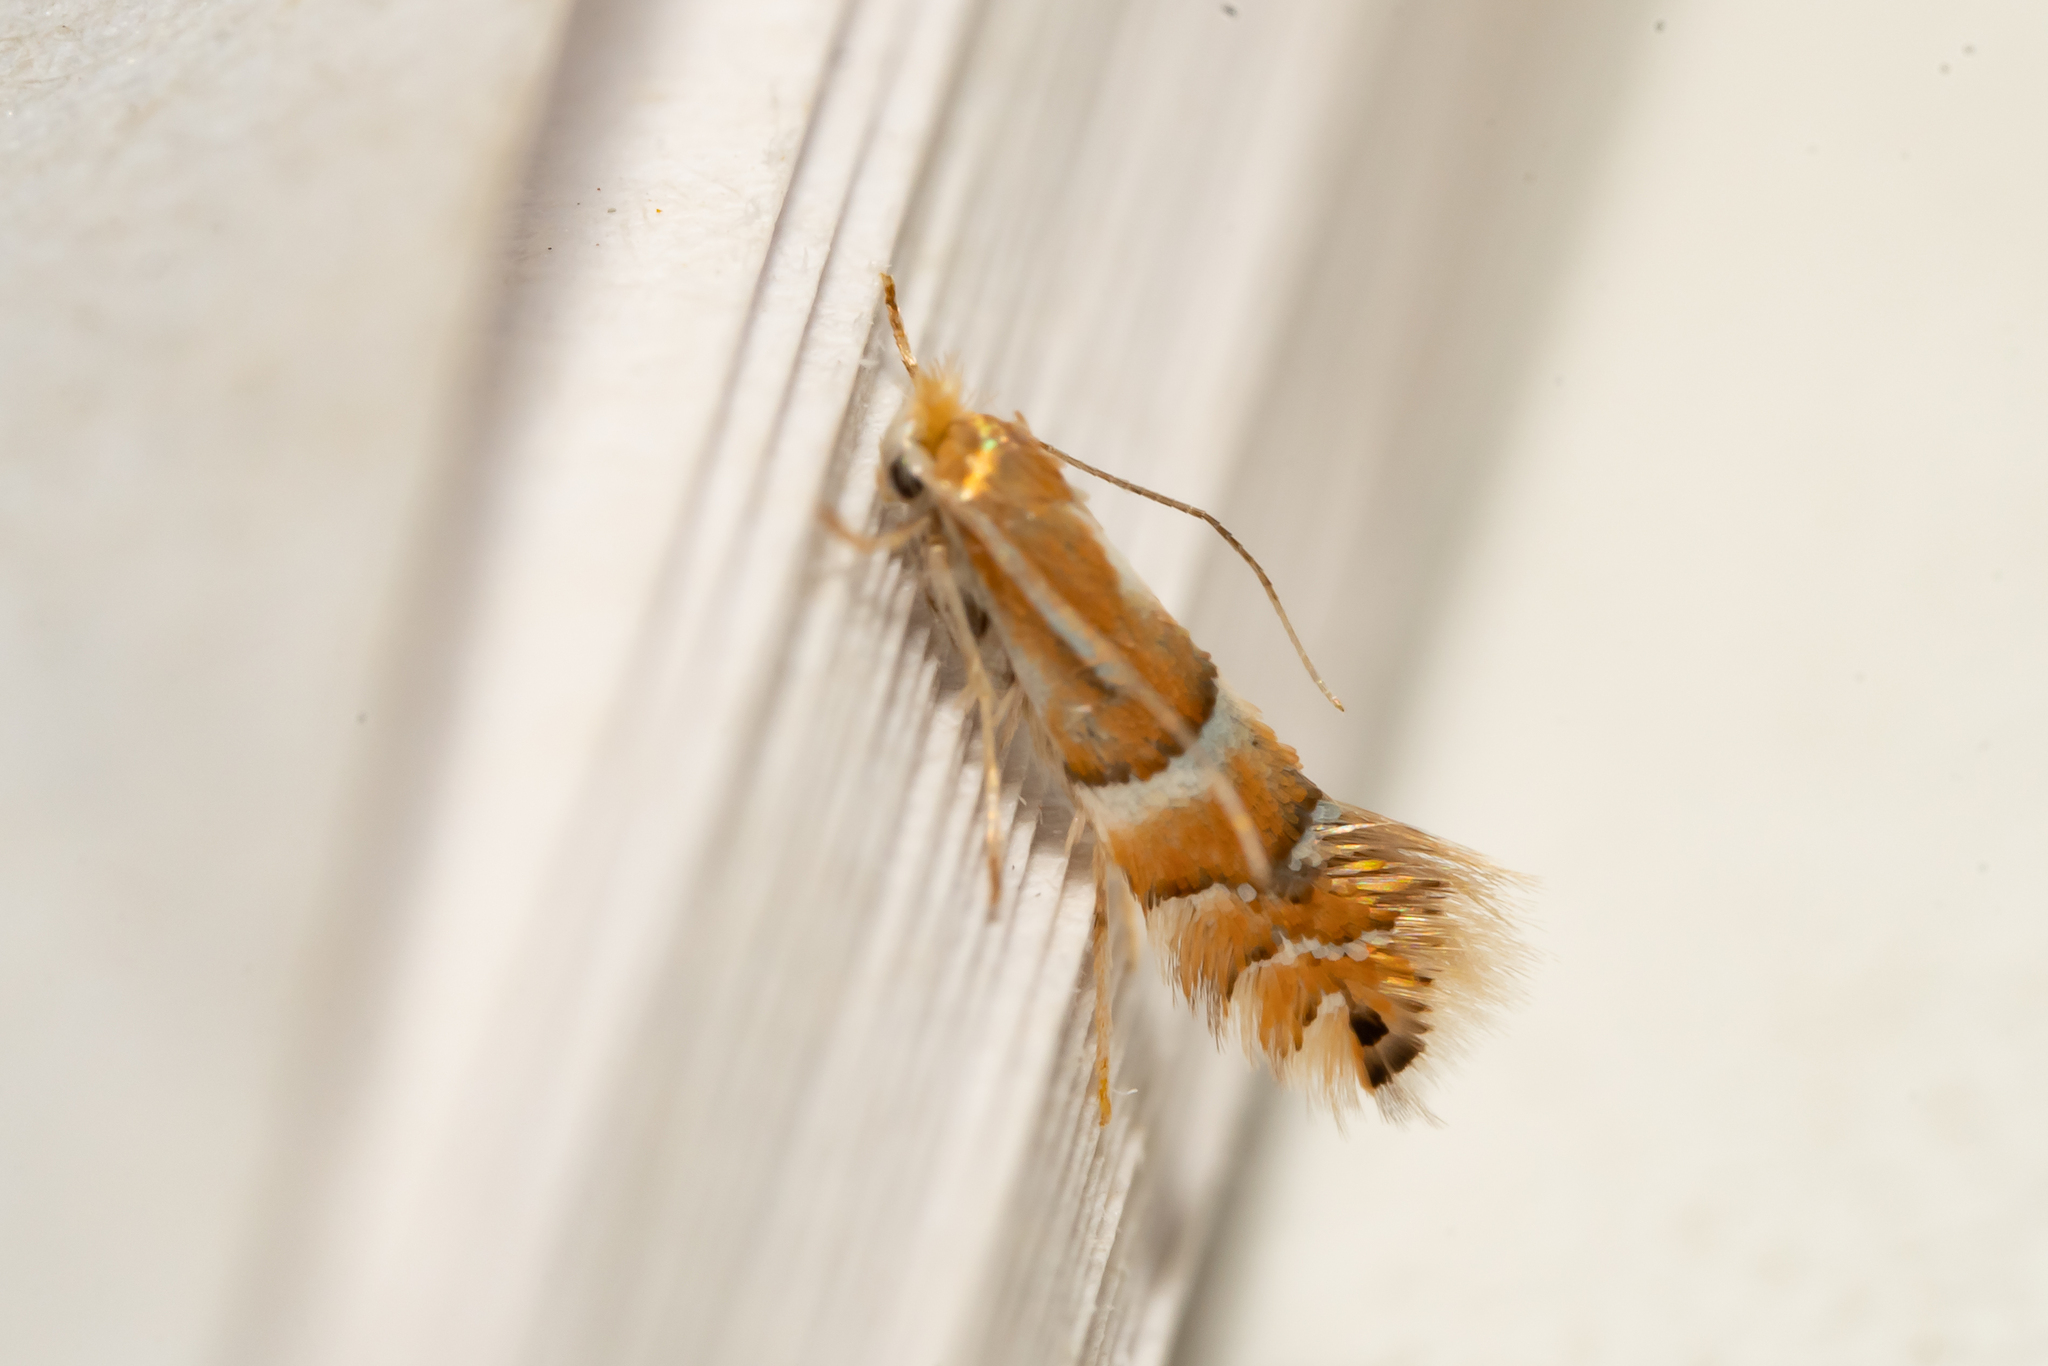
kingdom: Animalia
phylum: Arthropoda
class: Insecta
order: Lepidoptera
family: Gracillariidae
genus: Phyllonorycter
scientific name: Phyllonorycter ulmifoliella
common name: Red birch midget
